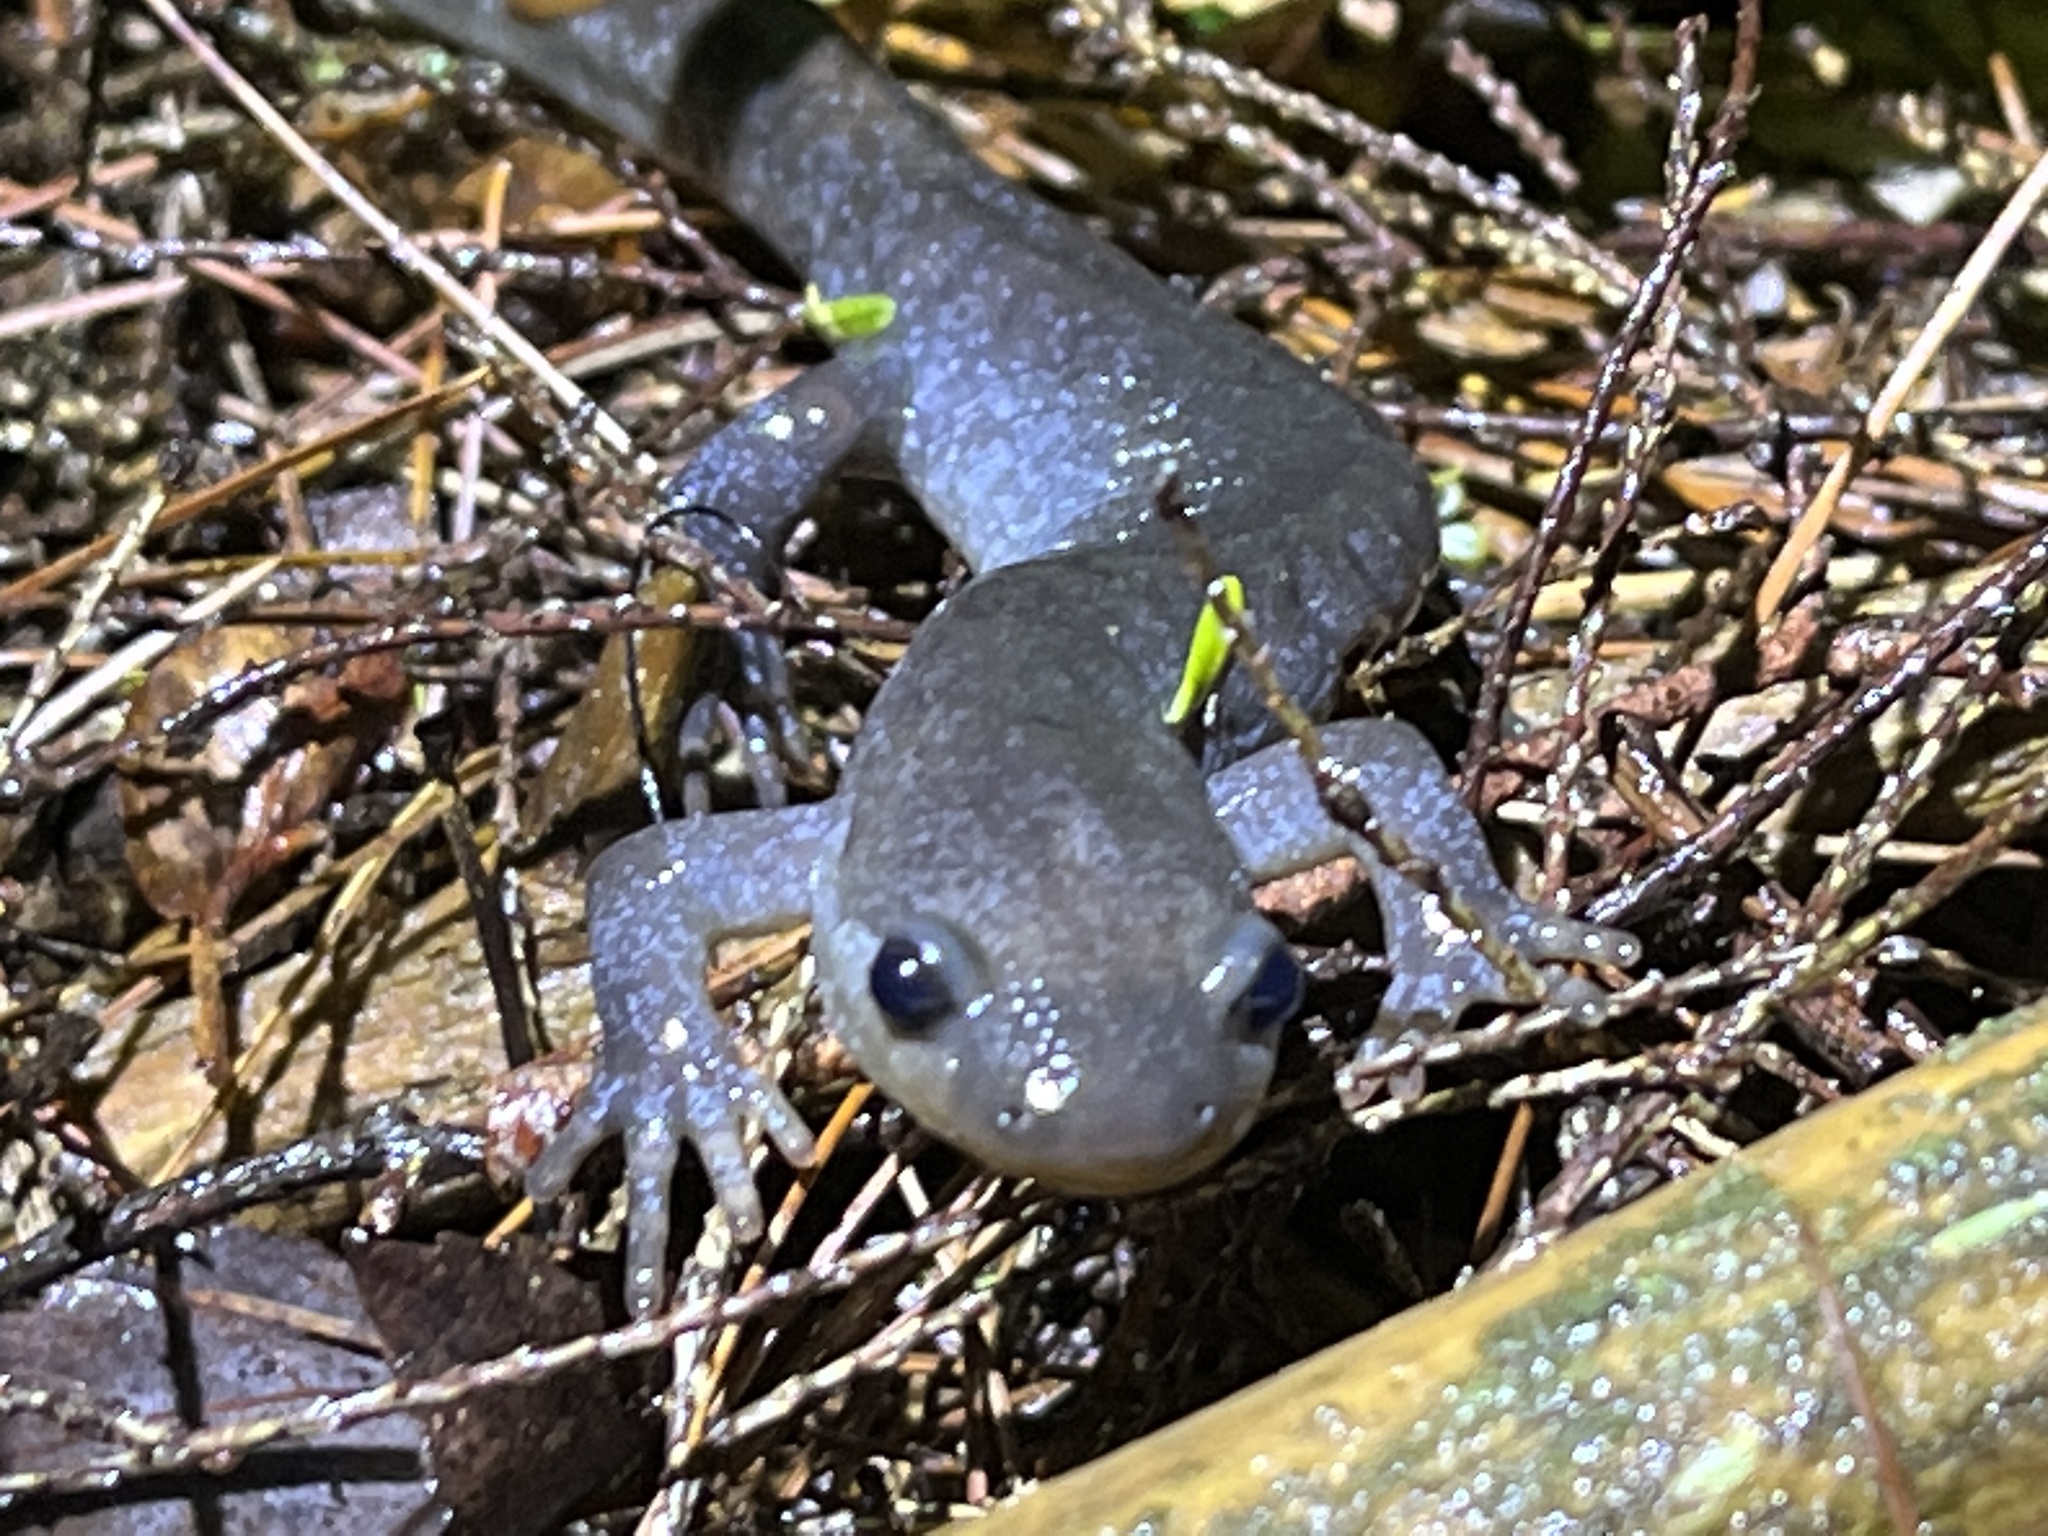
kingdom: Animalia
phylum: Chordata
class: Amphibia
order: Caudata
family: Ambystomatidae
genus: Ambystoma
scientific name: Ambystoma jeffersonianum
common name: Jefferson salamander
